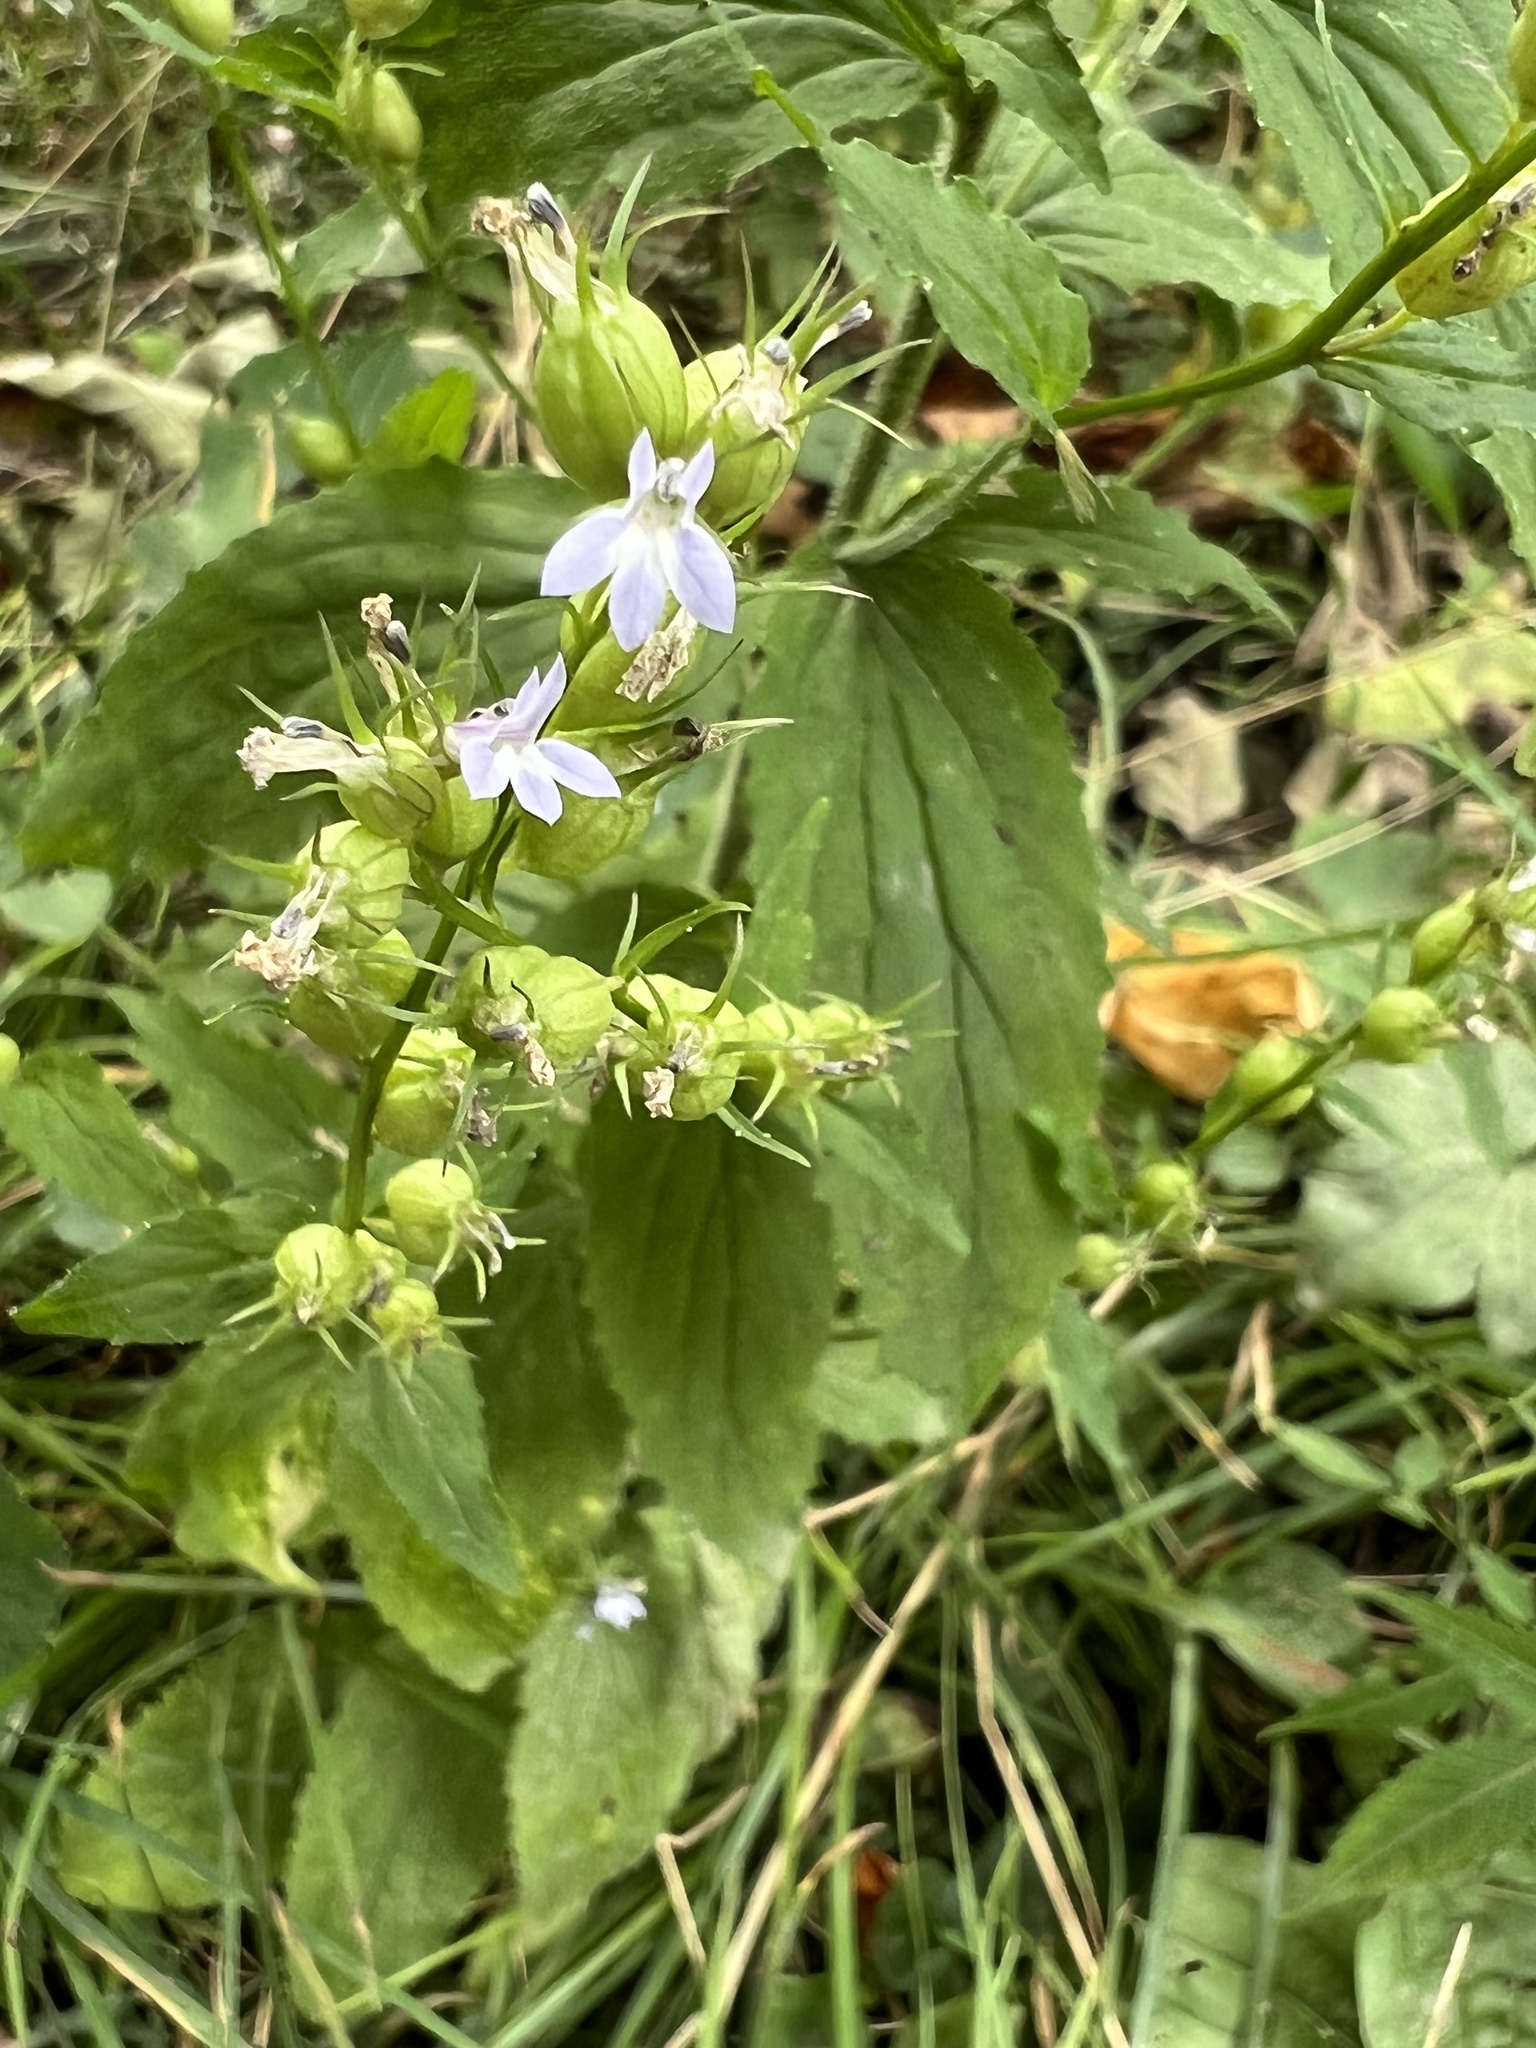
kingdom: Plantae
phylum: Tracheophyta
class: Magnoliopsida
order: Asterales
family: Campanulaceae
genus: Lobelia
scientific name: Lobelia inflata
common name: Indian tobacco
